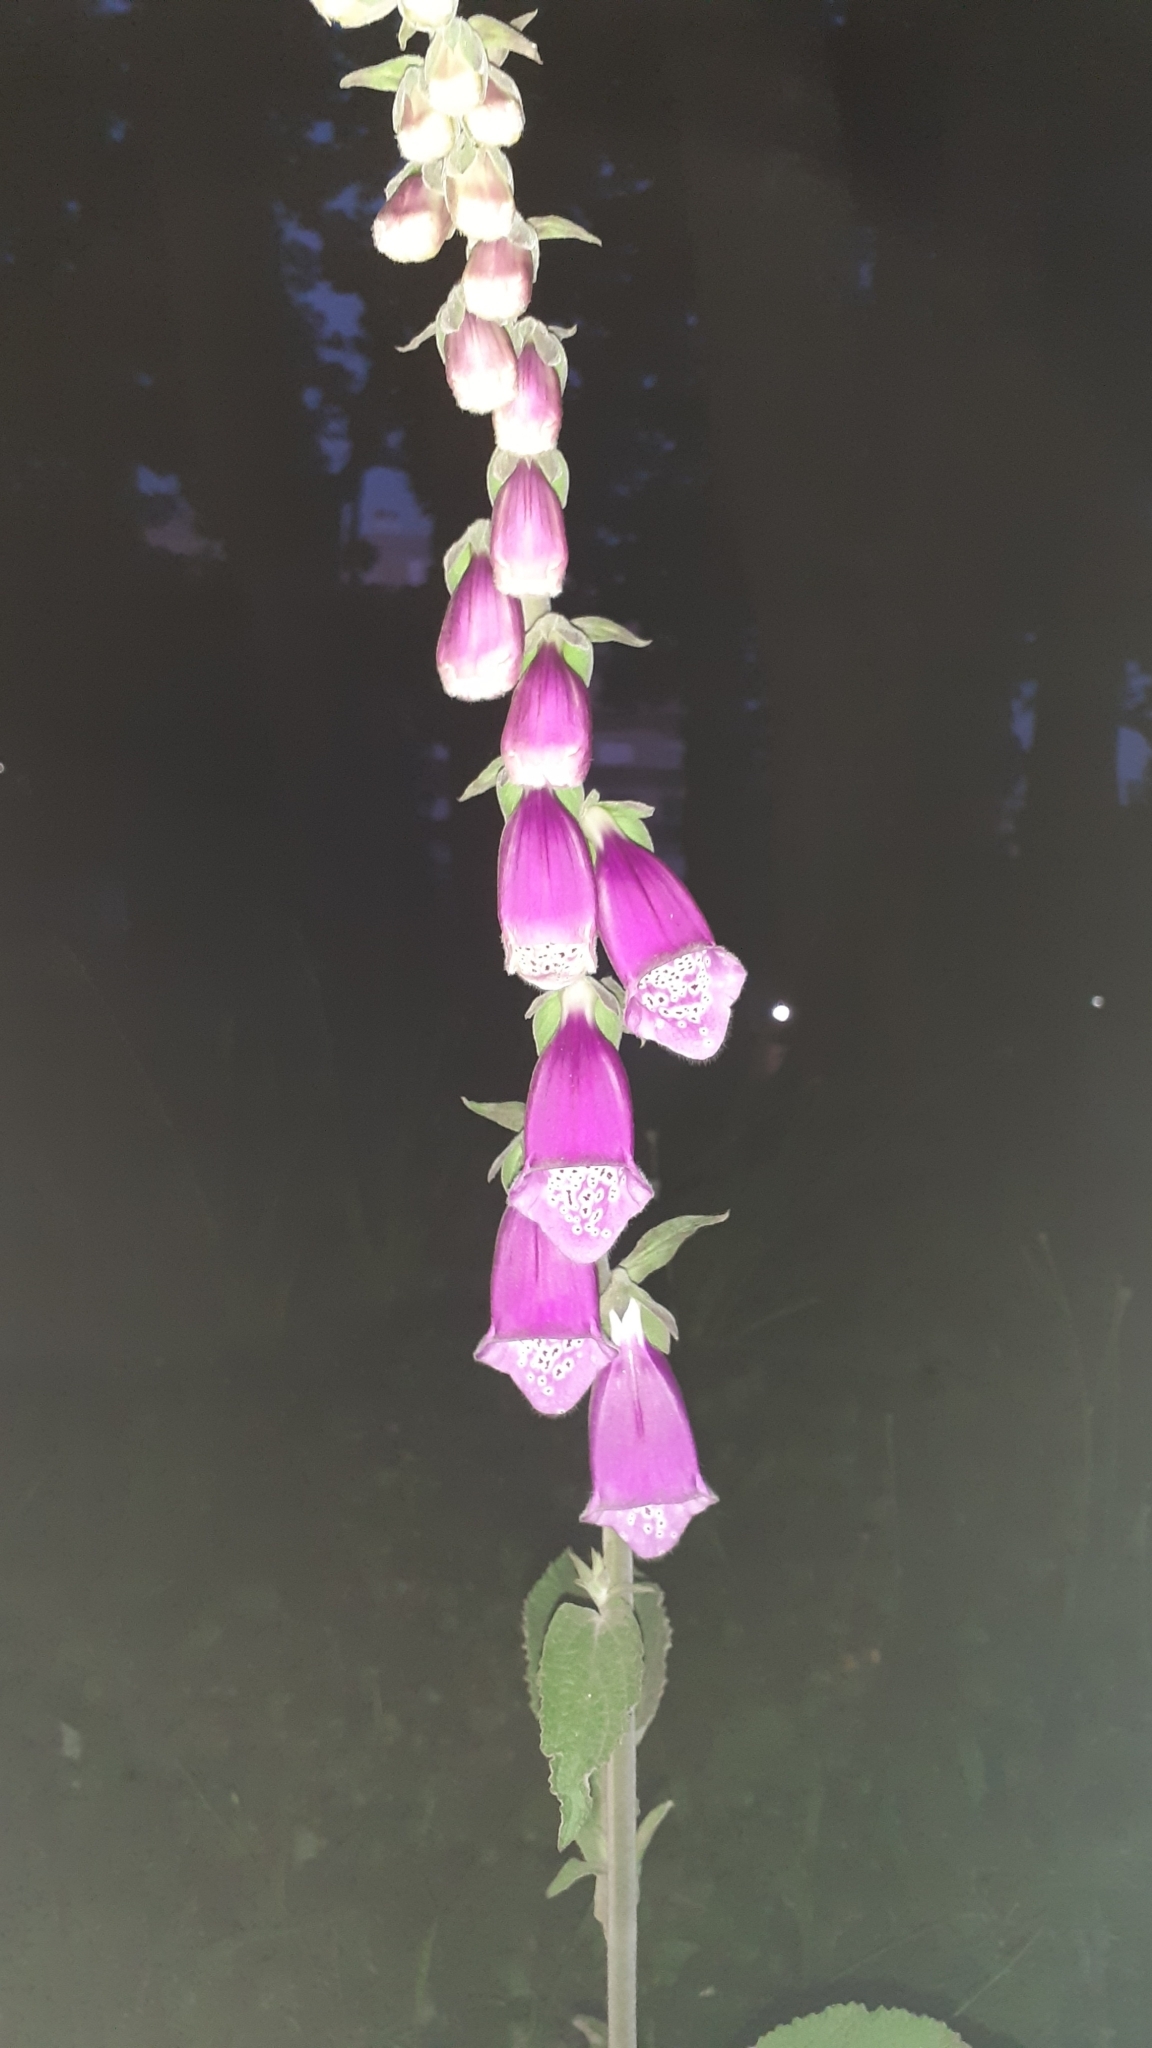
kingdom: Plantae
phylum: Tracheophyta
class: Magnoliopsida
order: Lamiales
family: Plantaginaceae
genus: Digitalis
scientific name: Digitalis purpurea
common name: Foxglove
